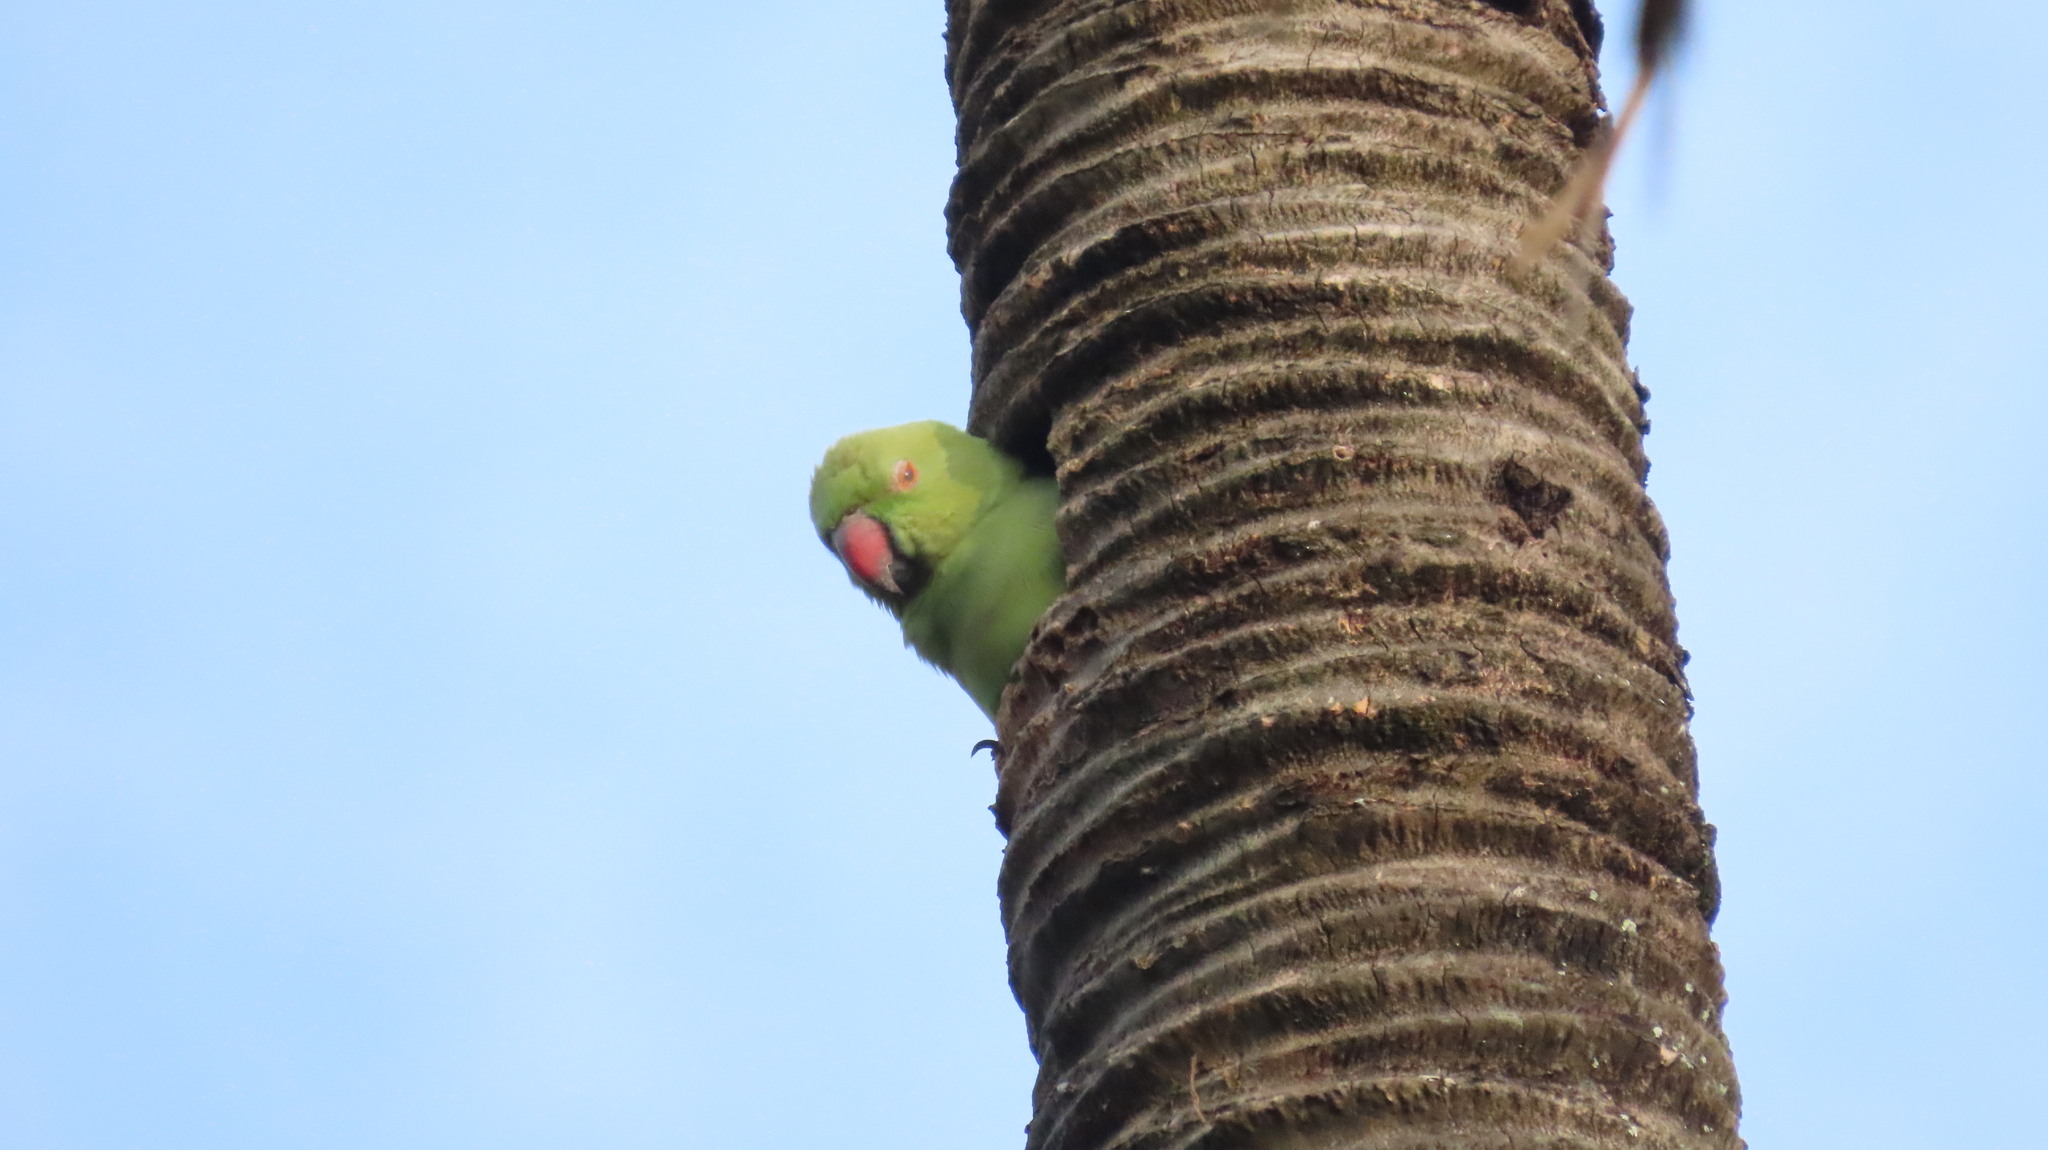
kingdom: Animalia
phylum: Chordata
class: Aves
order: Psittaciformes
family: Psittacidae
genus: Psittacula
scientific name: Psittacula krameri
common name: Rose-ringed parakeet
